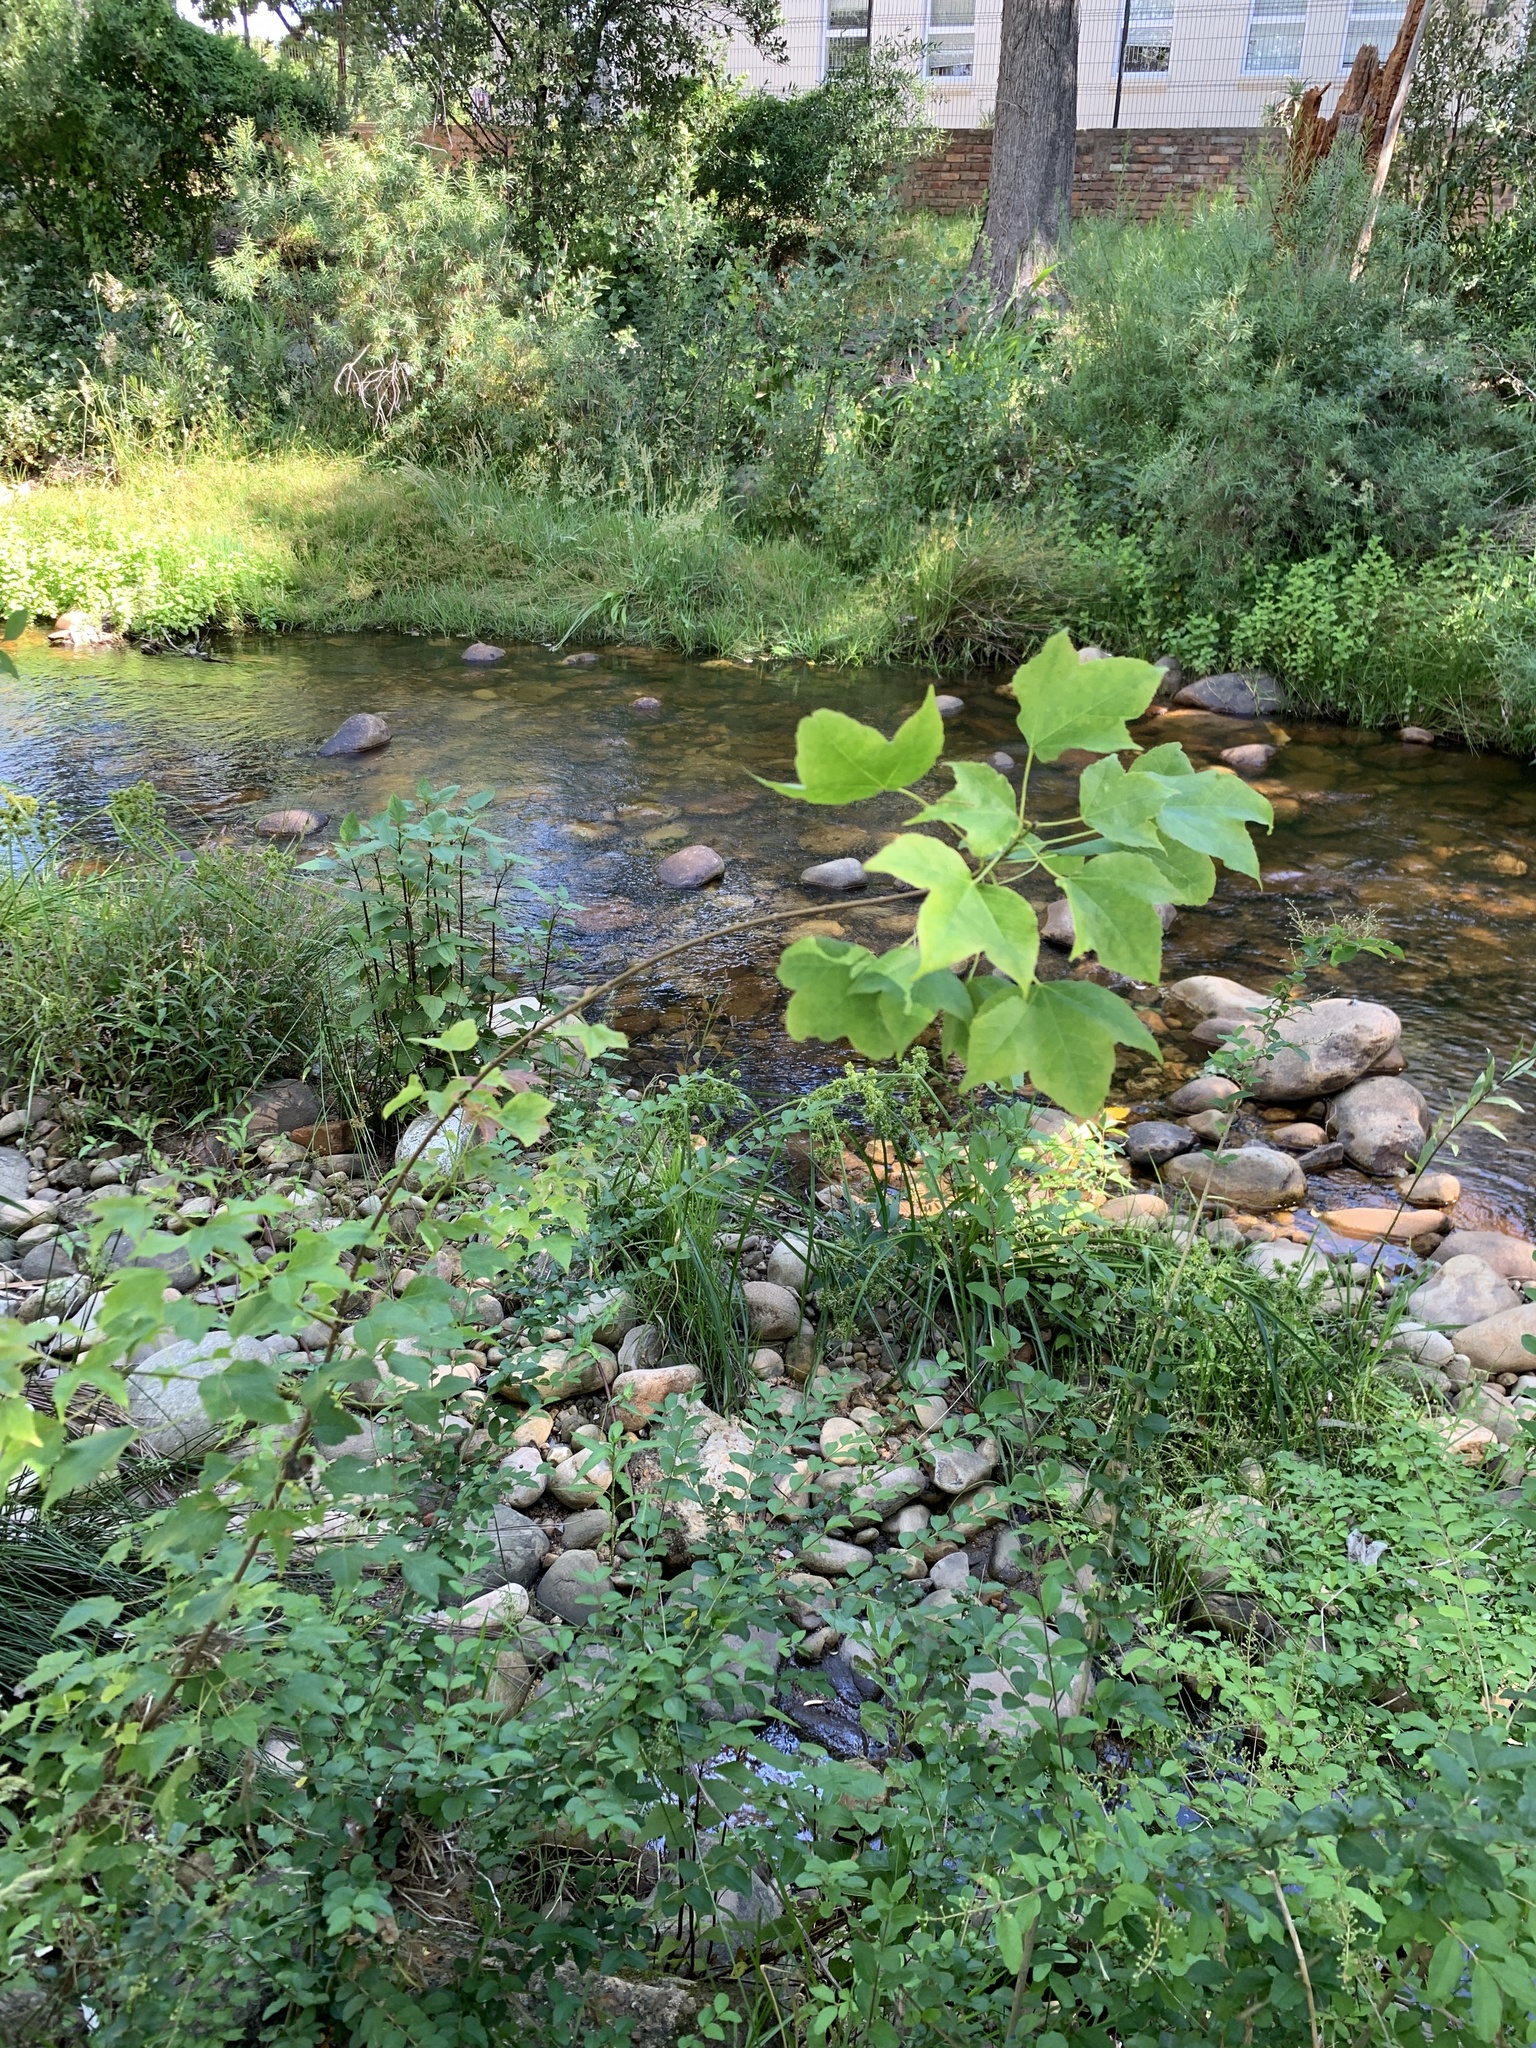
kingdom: Plantae
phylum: Tracheophyta
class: Magnoliopsida
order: Sapindales
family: Sapindaceae
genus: Acer
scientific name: Acer buergerianum
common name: Trident maple
